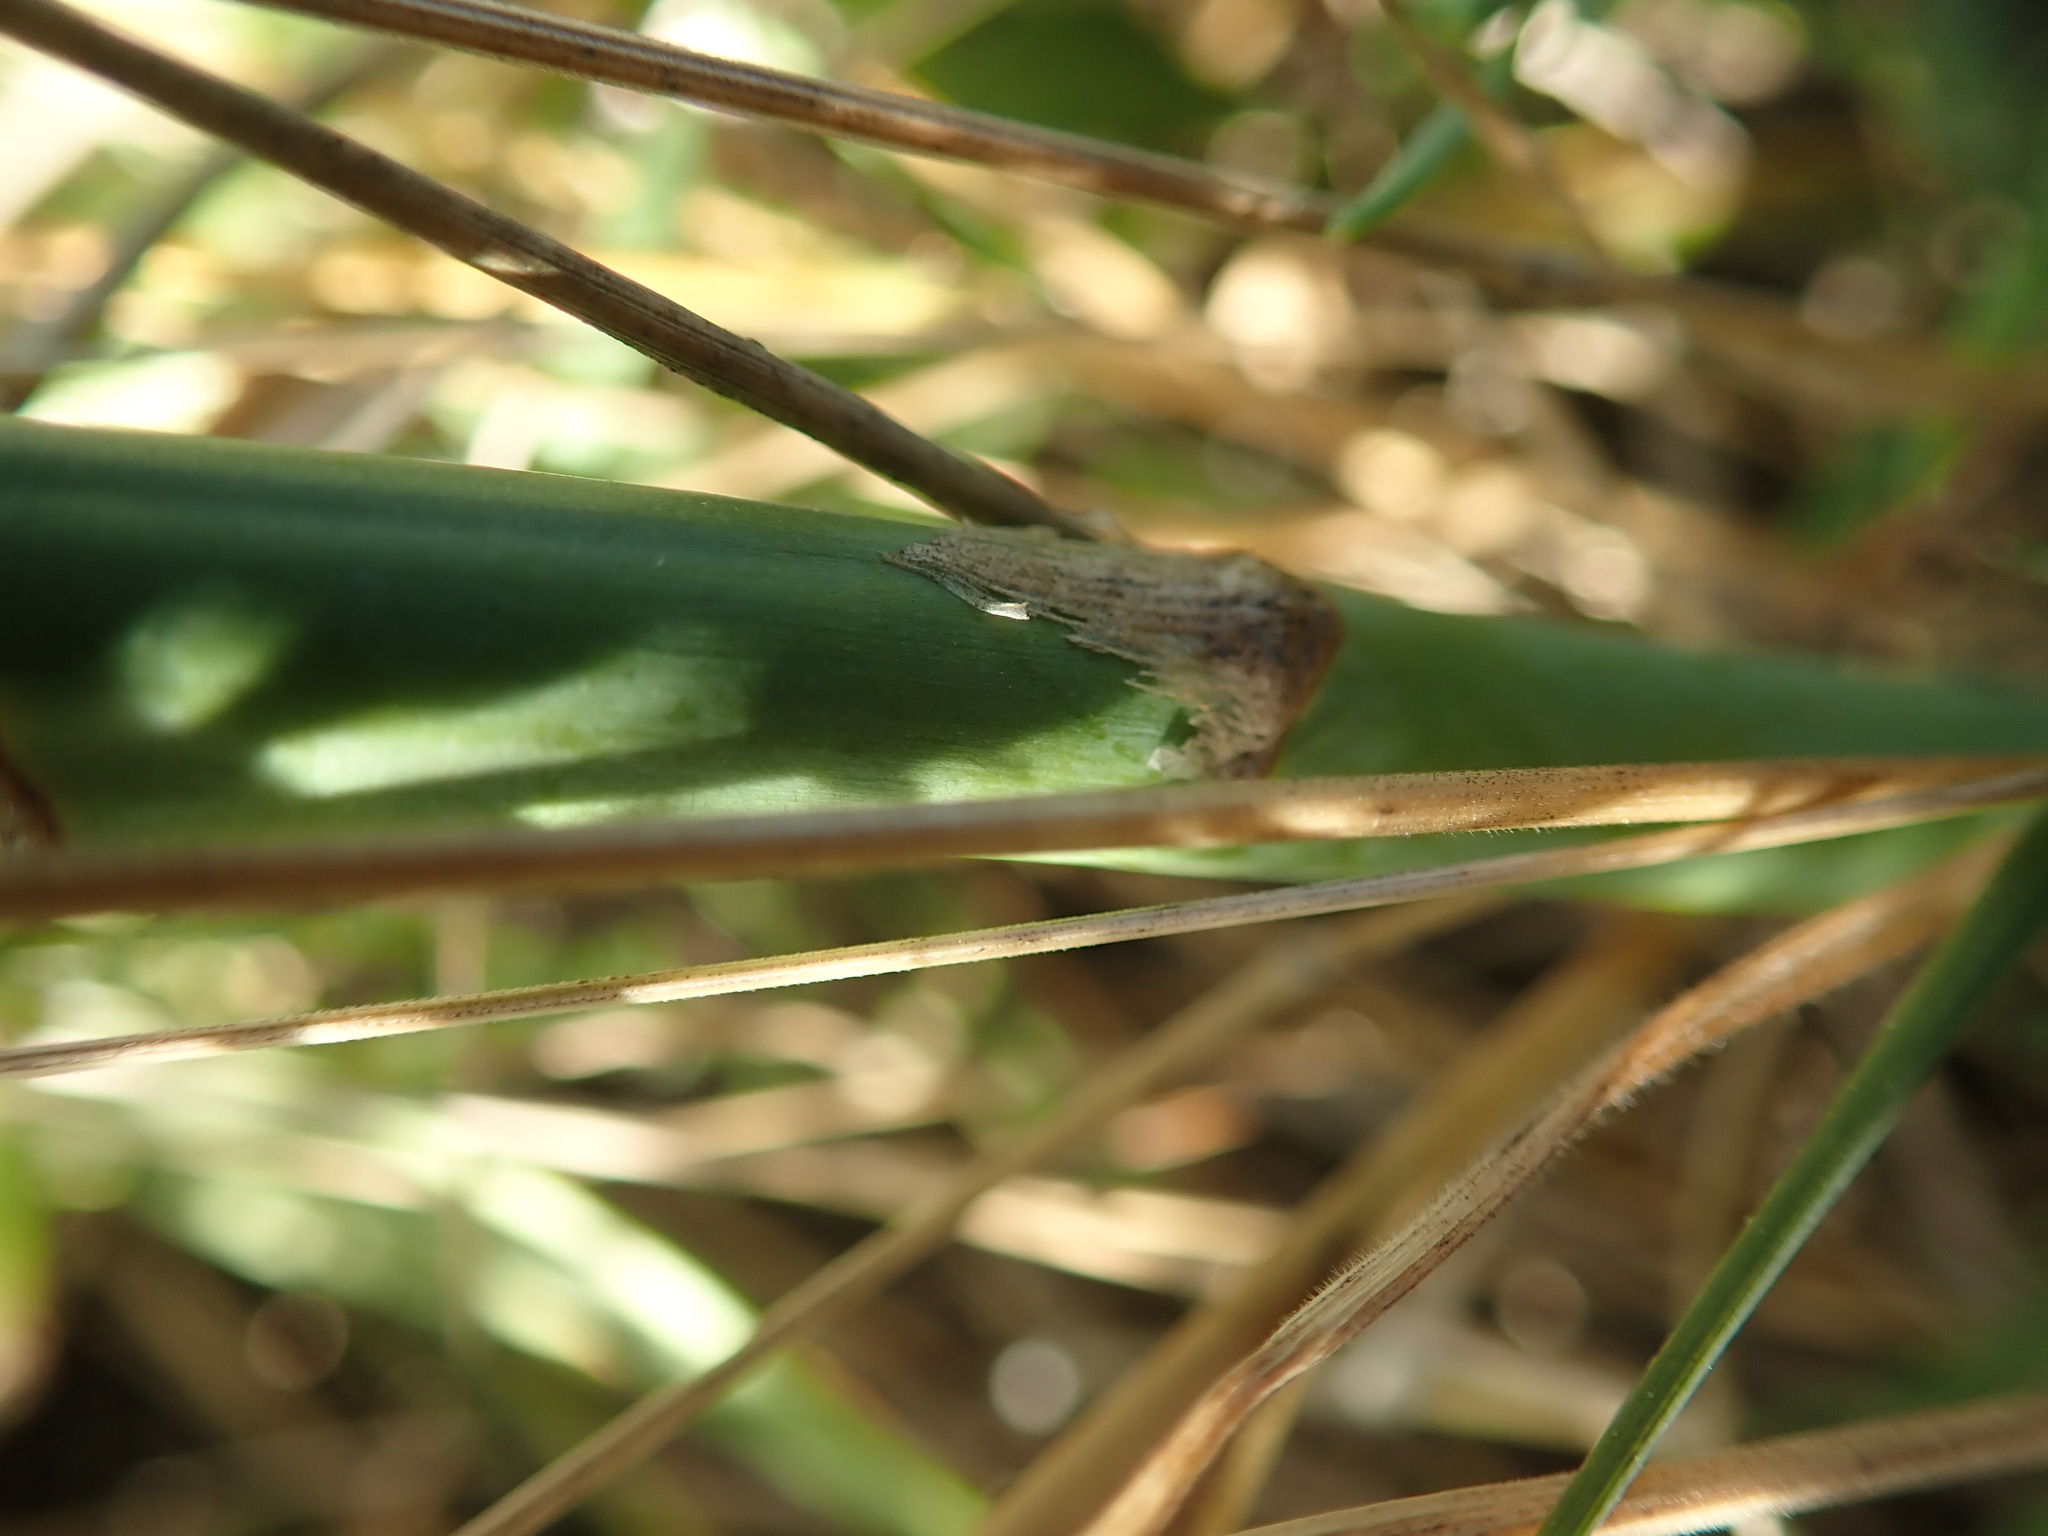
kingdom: Plantae
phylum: Tracheophyta
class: Liliopsida
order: Asparagales
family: Asparagaceae
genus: Asparagus
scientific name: Asparagus officinalis
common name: Garden asparagus
